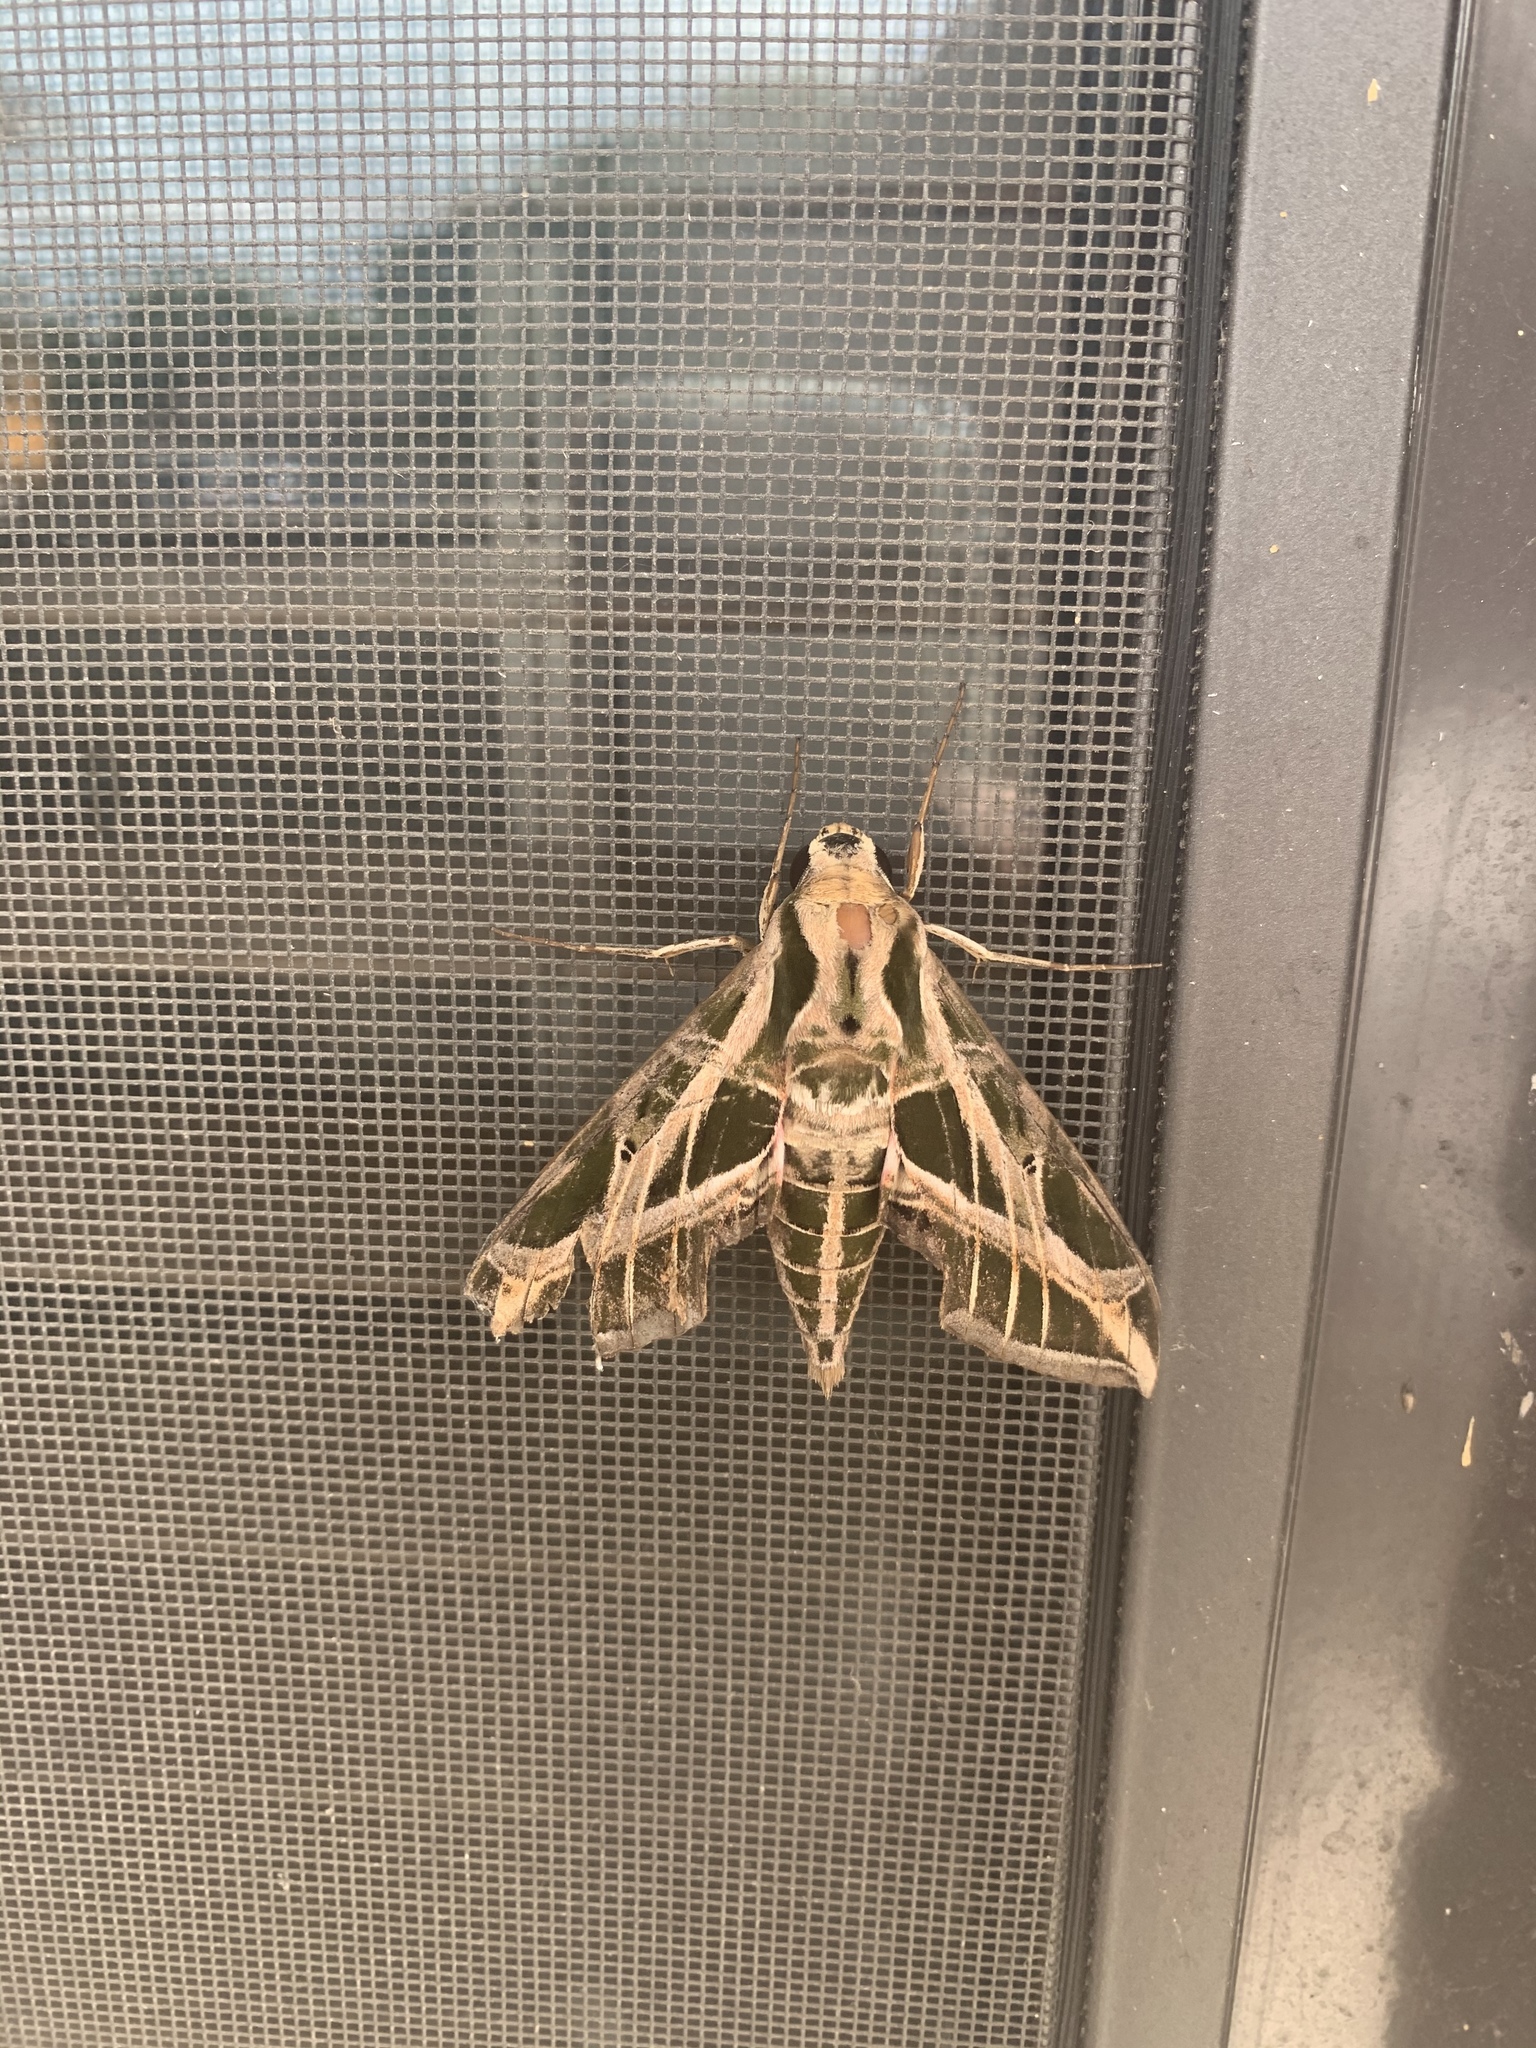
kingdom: Animalia
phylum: Arthropoda
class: Insecta
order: Lepidoptera
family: Sphingidae
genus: Eumorpha
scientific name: Eumorpha vitis
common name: Vine sphinx
